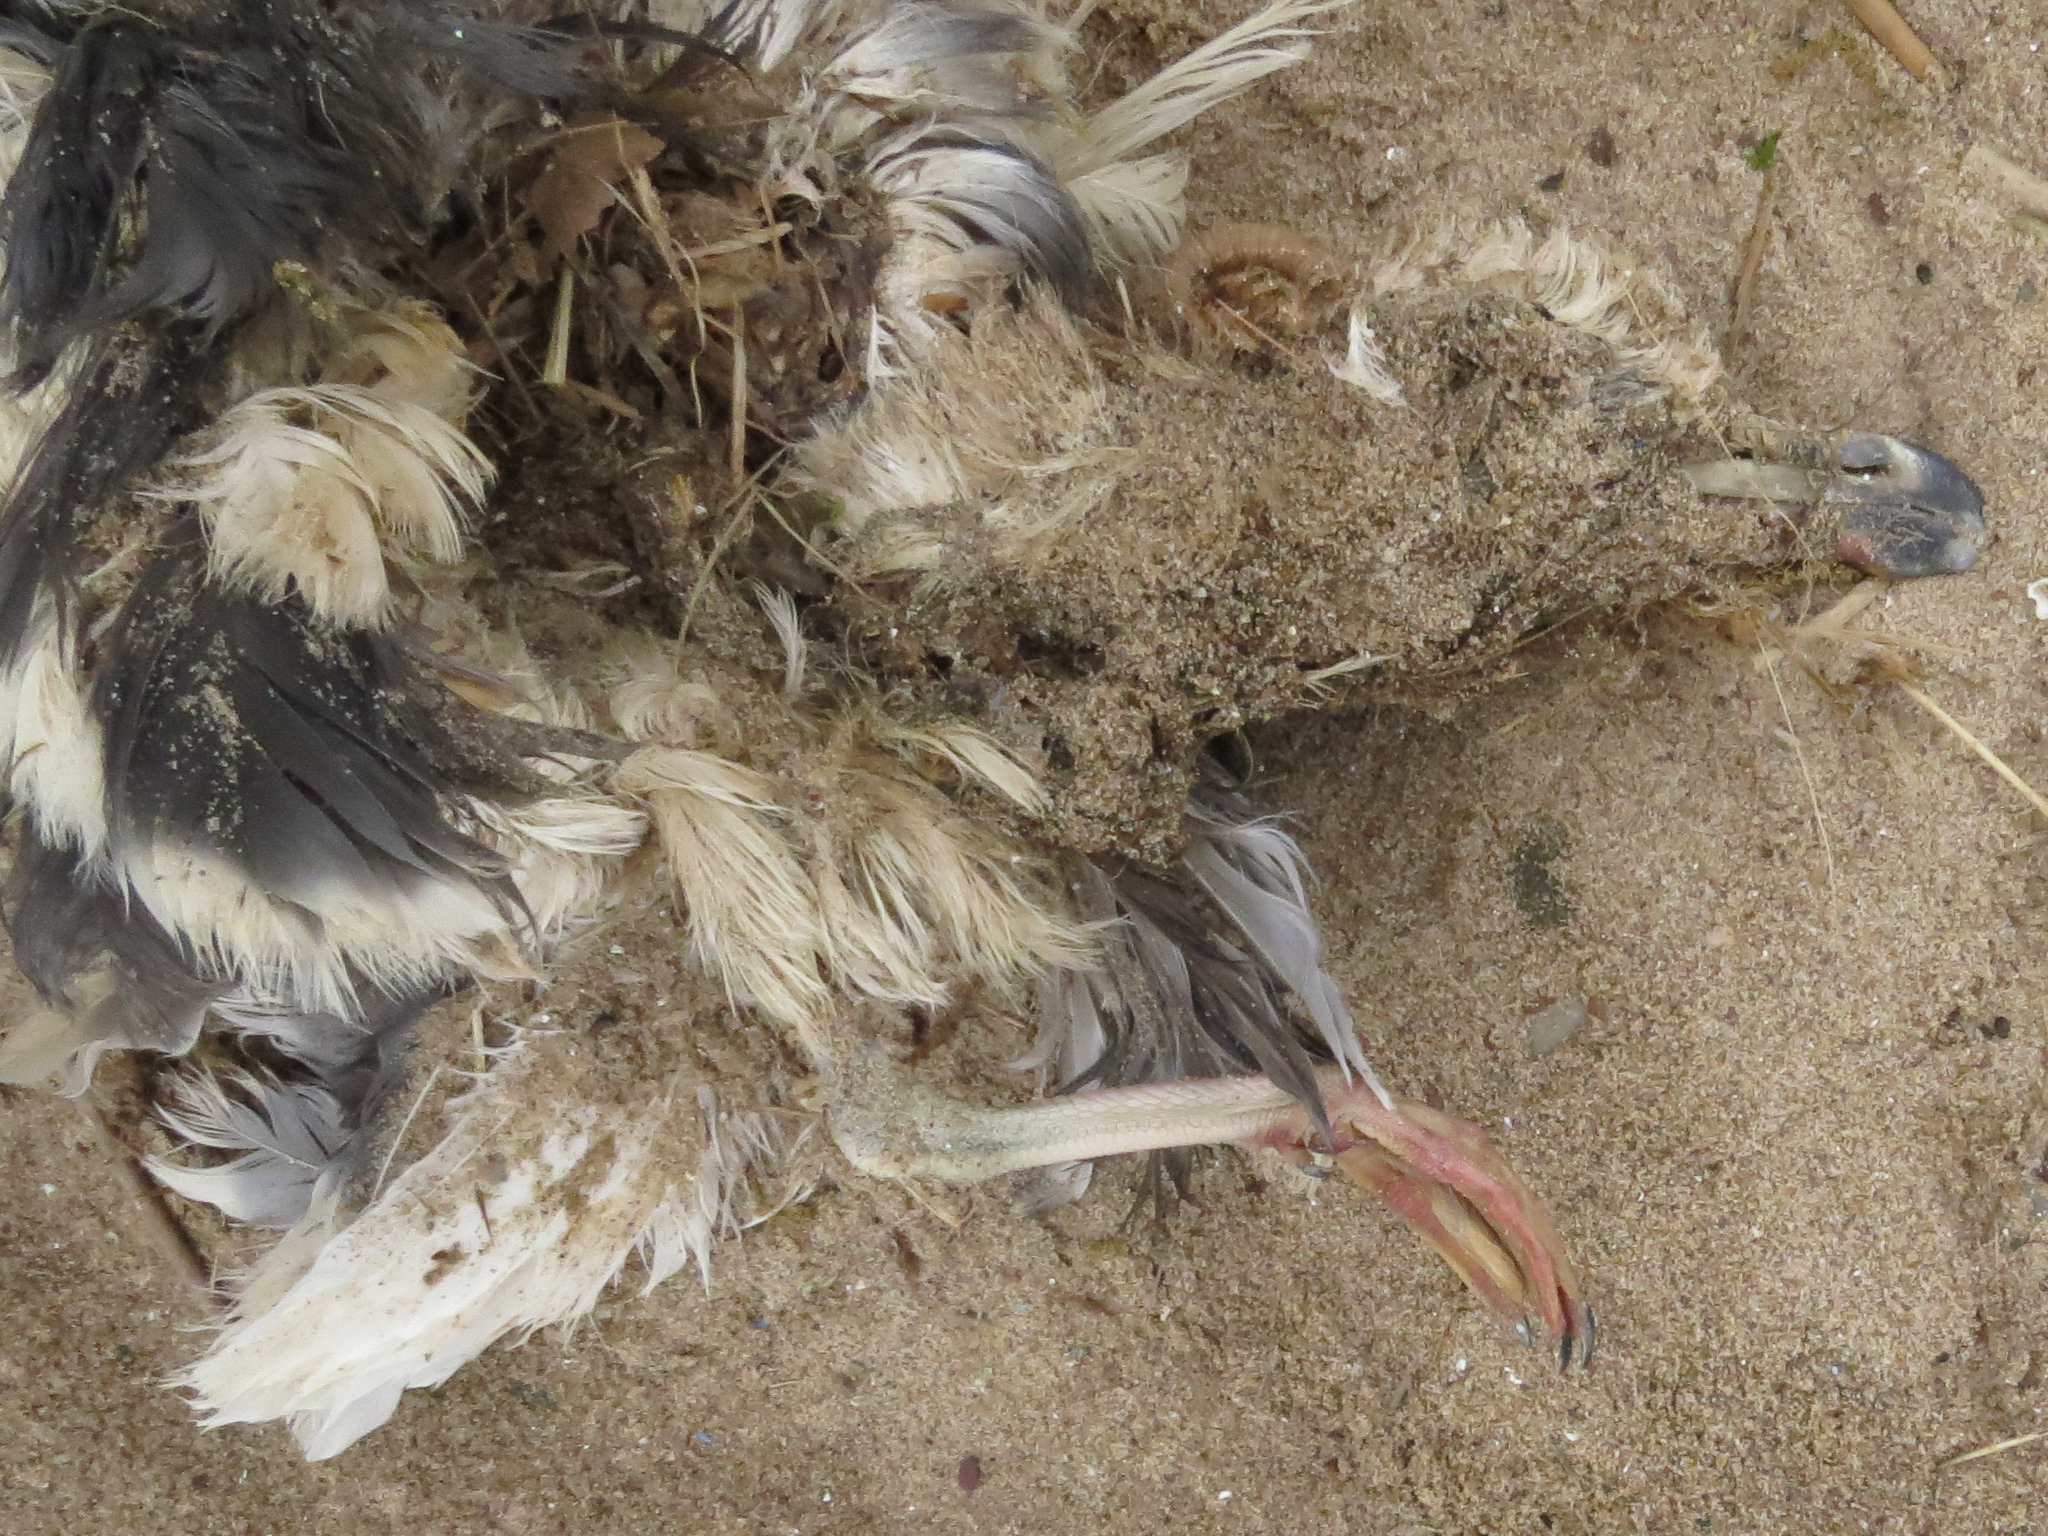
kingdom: Animalia
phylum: Chordata
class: Aves
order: Charadriiformes
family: Laridae
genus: Larus
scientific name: Larus marinus
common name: Great black-backed gull
